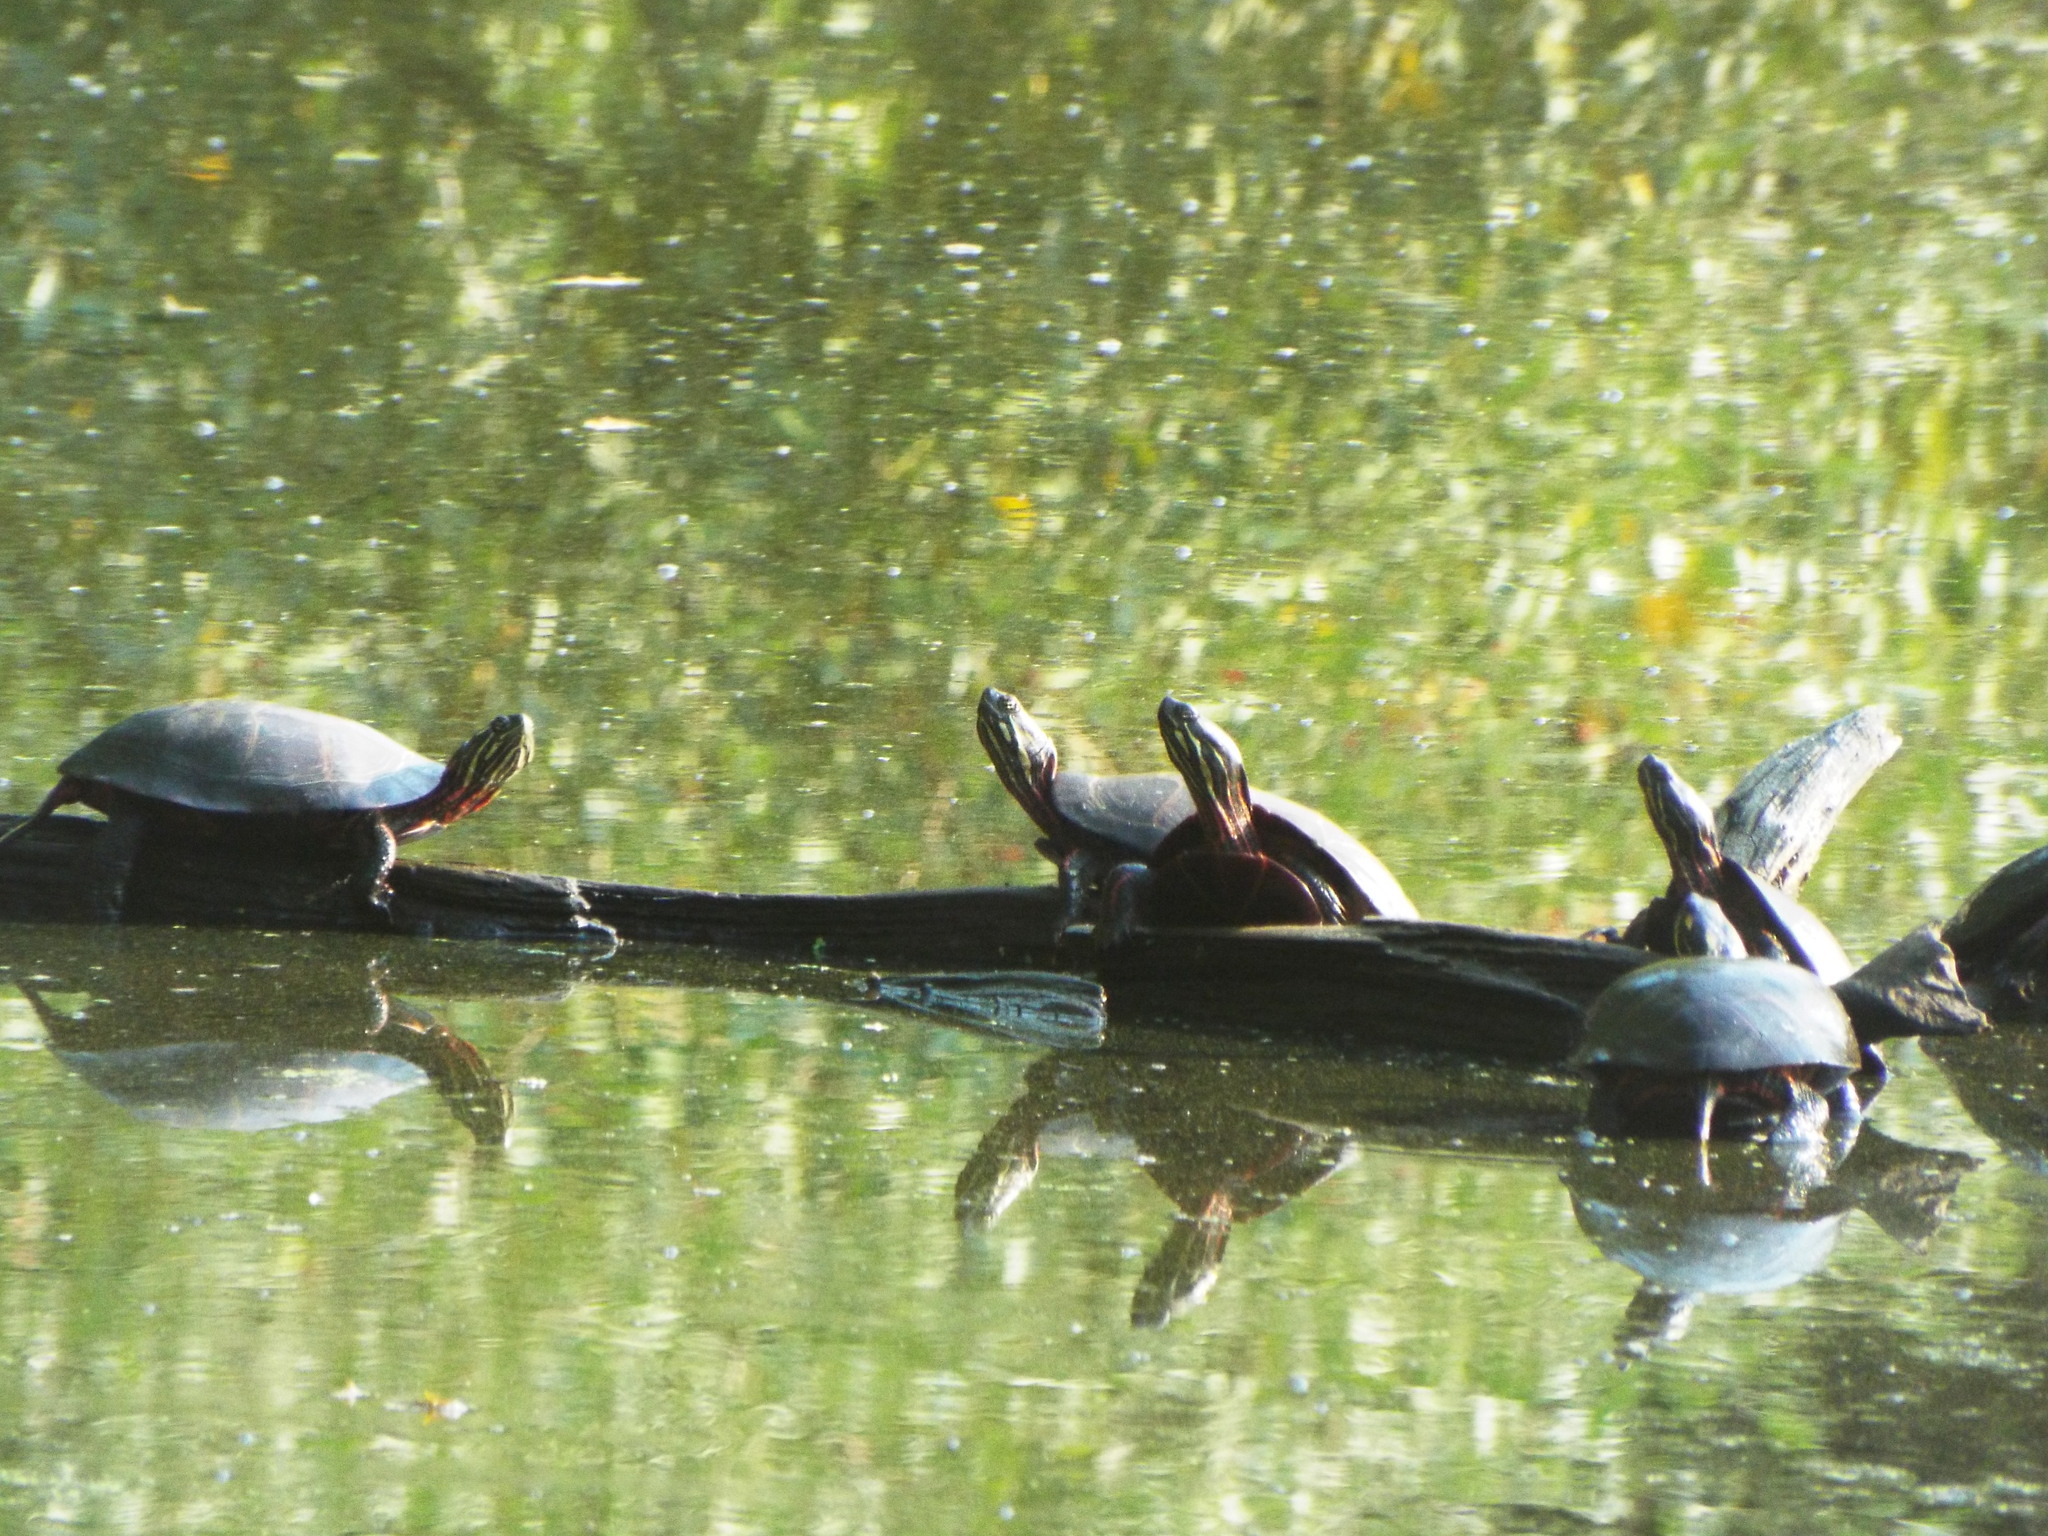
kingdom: Animalia
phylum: Chordata
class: Testudines
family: Emydidae
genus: Chrysemys
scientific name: Chrysemys picta
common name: Painted turtle
